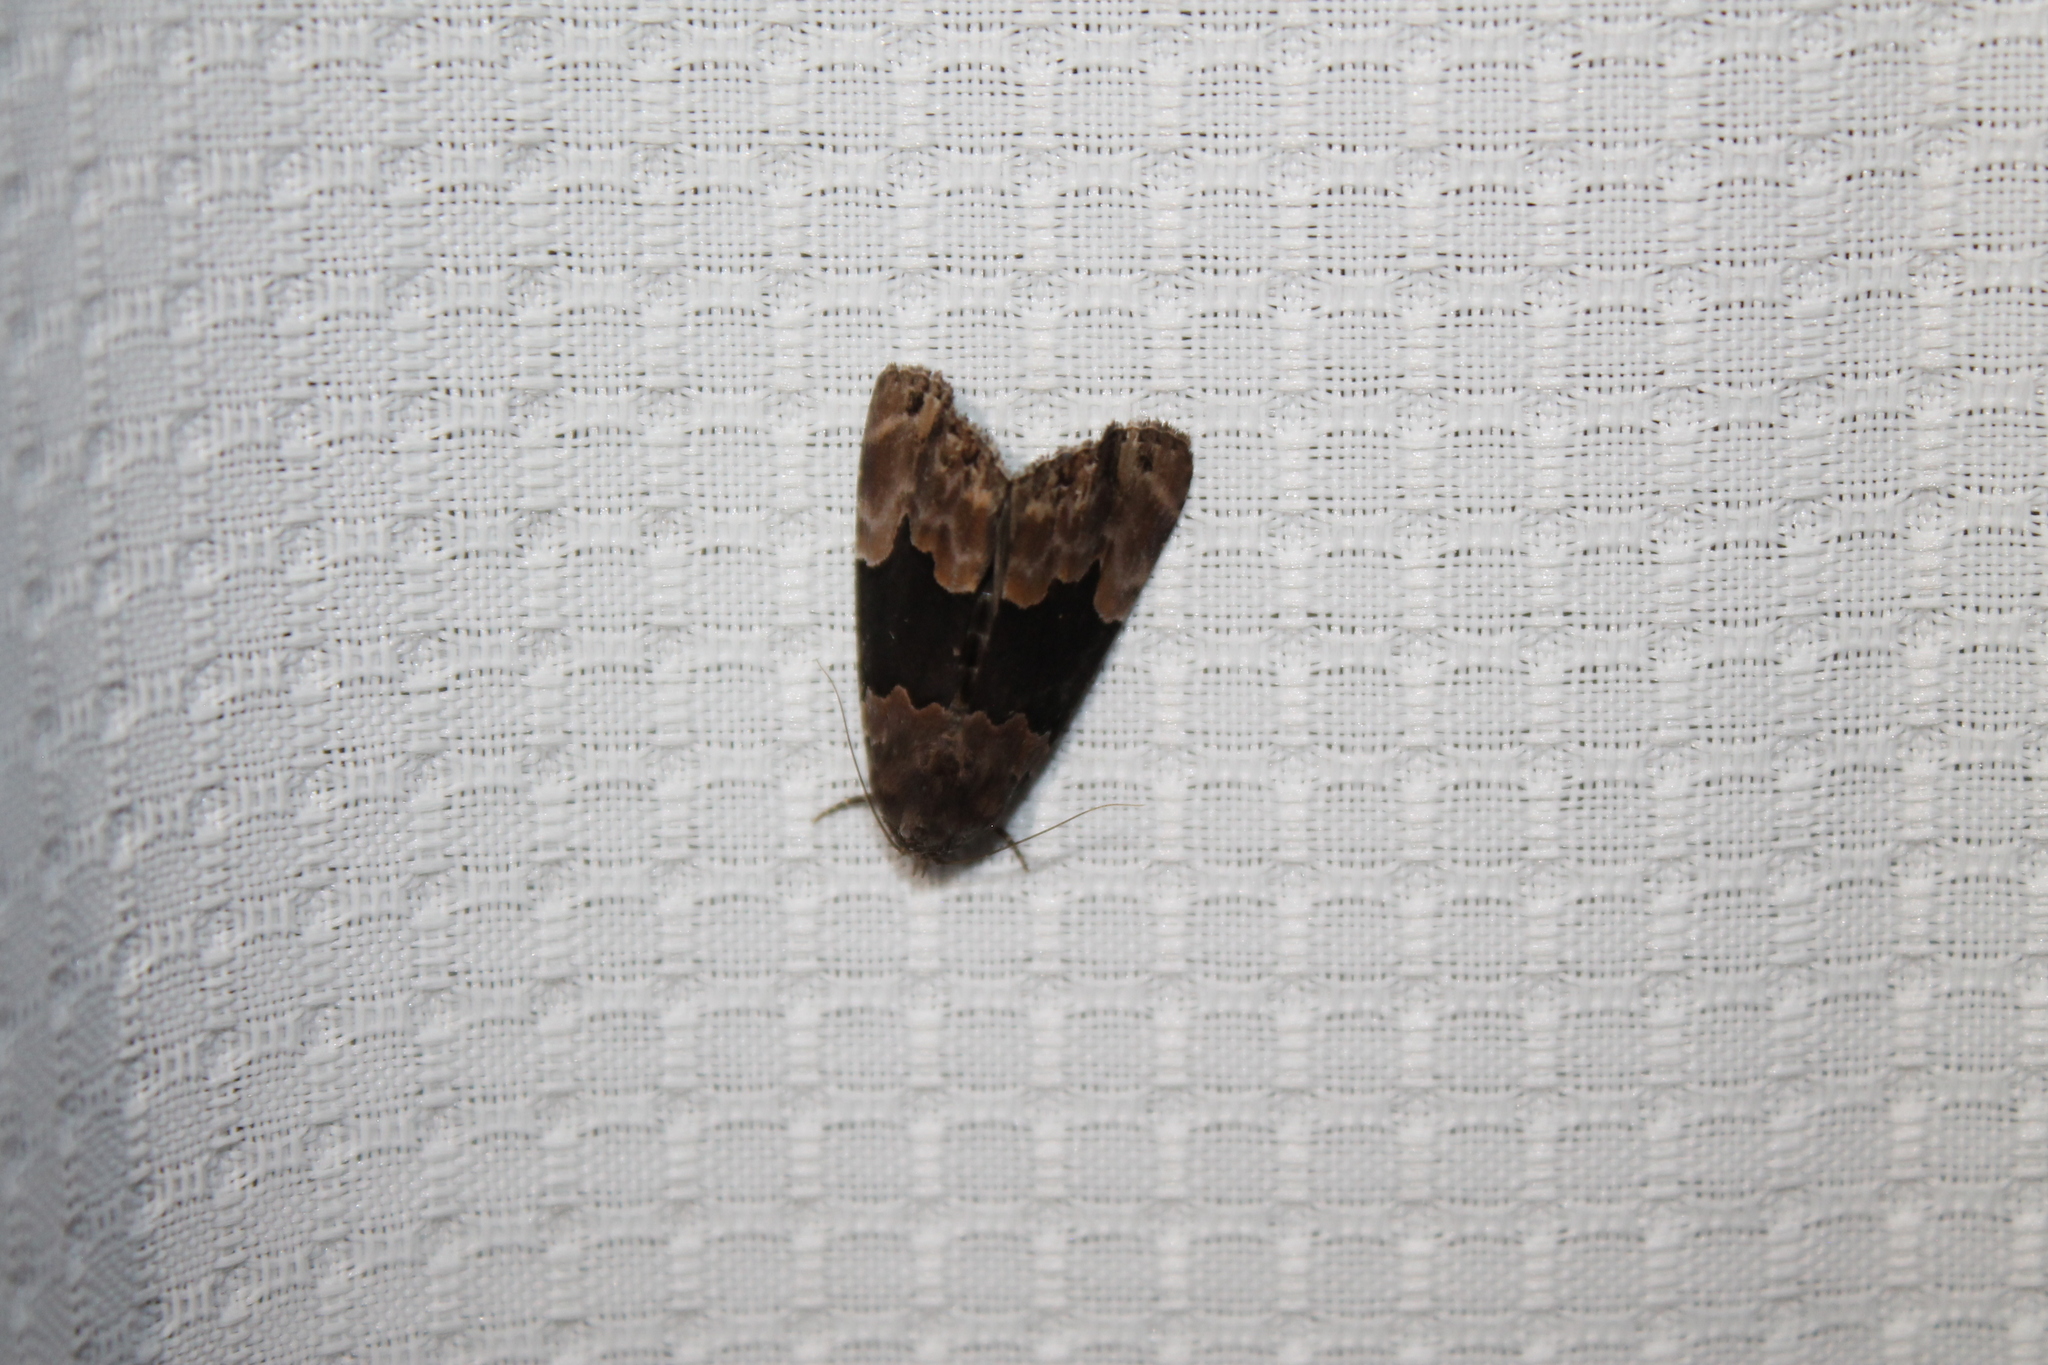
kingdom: Animalia
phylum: Arthropoda
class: Insecta
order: Lepidoptera
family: Erebidae
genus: Dinumma
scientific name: Dinumma deponens
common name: Purplish moth
